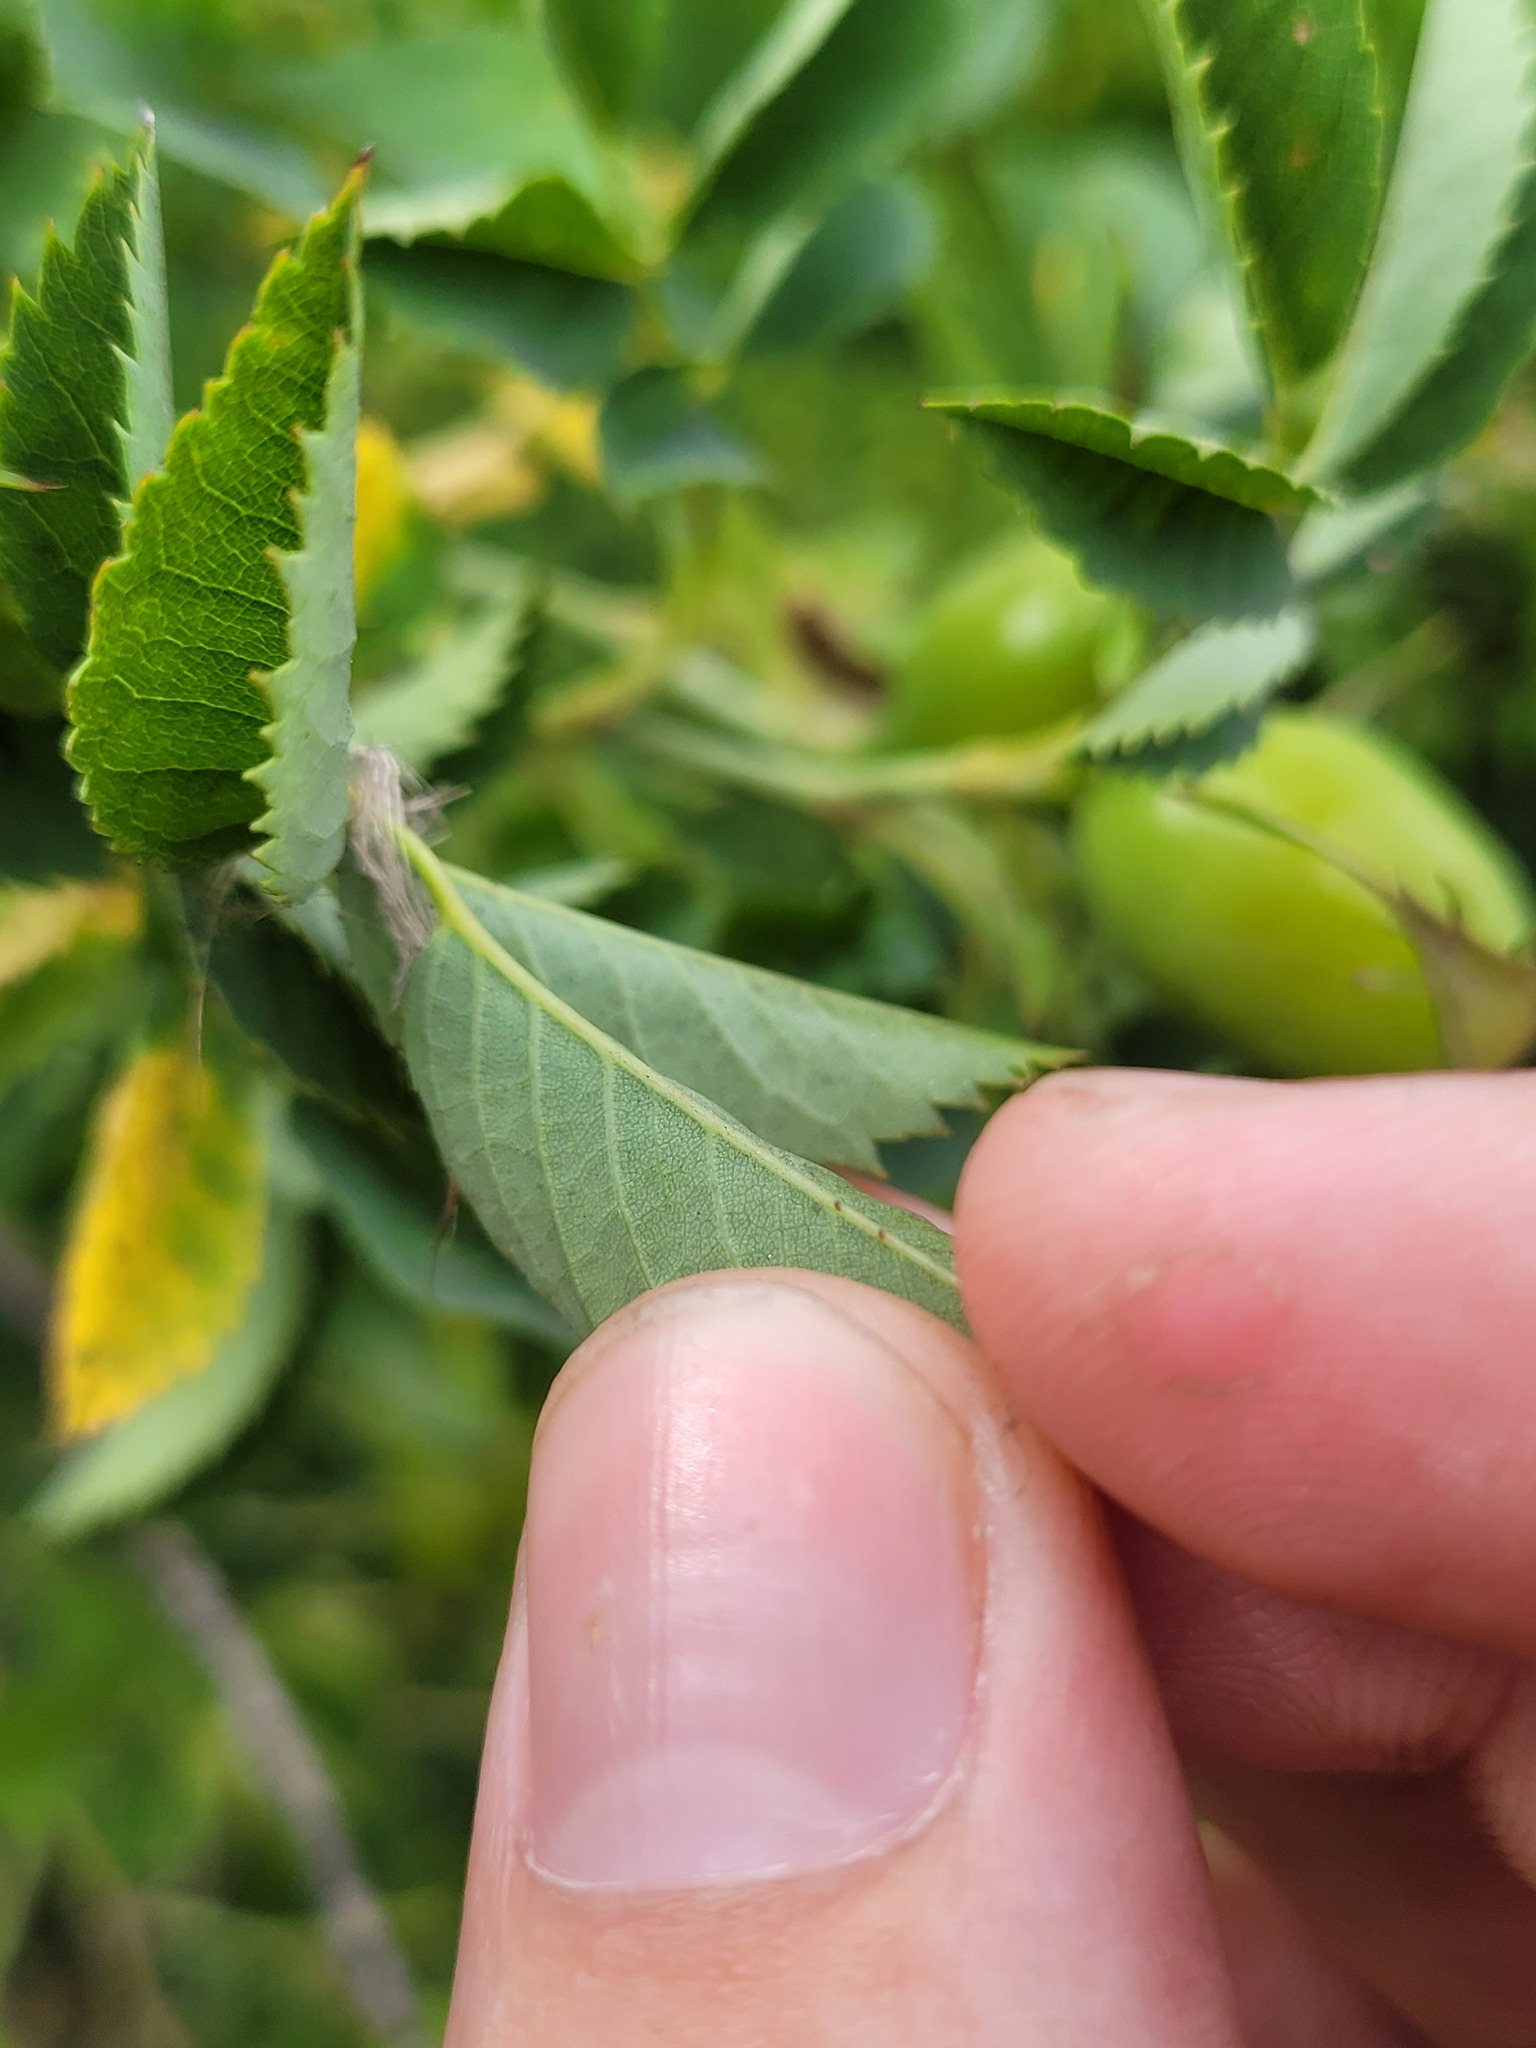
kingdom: Plantae
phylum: Tracheophyta
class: Magnoliopsida
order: Rosales
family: Rosaceae
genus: Rosa
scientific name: Rosa dumalis
